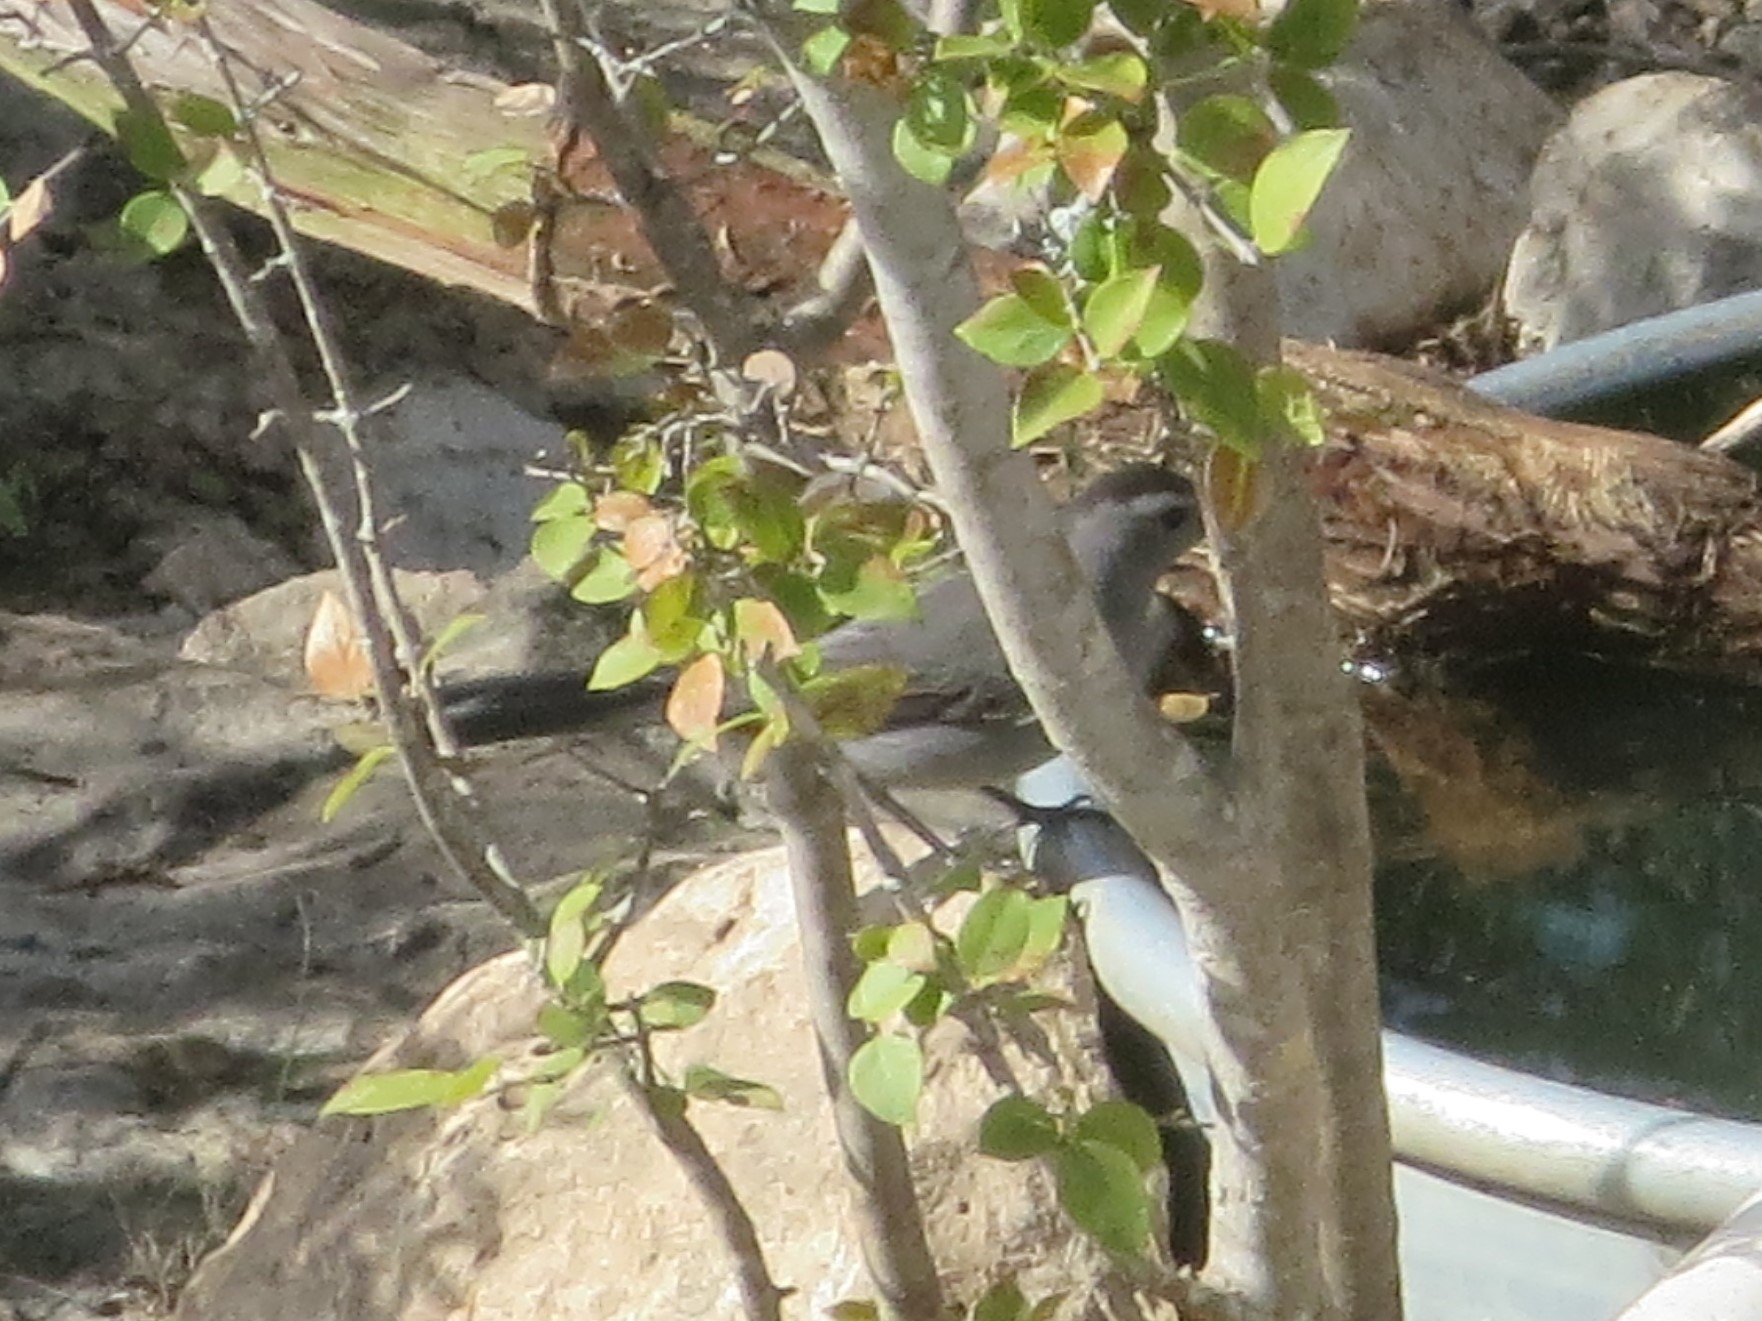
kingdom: Animalia
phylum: Chordata
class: Aves
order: Passeriformes
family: Mimidae
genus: Dumetella
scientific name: Dumetella carolinensis
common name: Gray catbird
